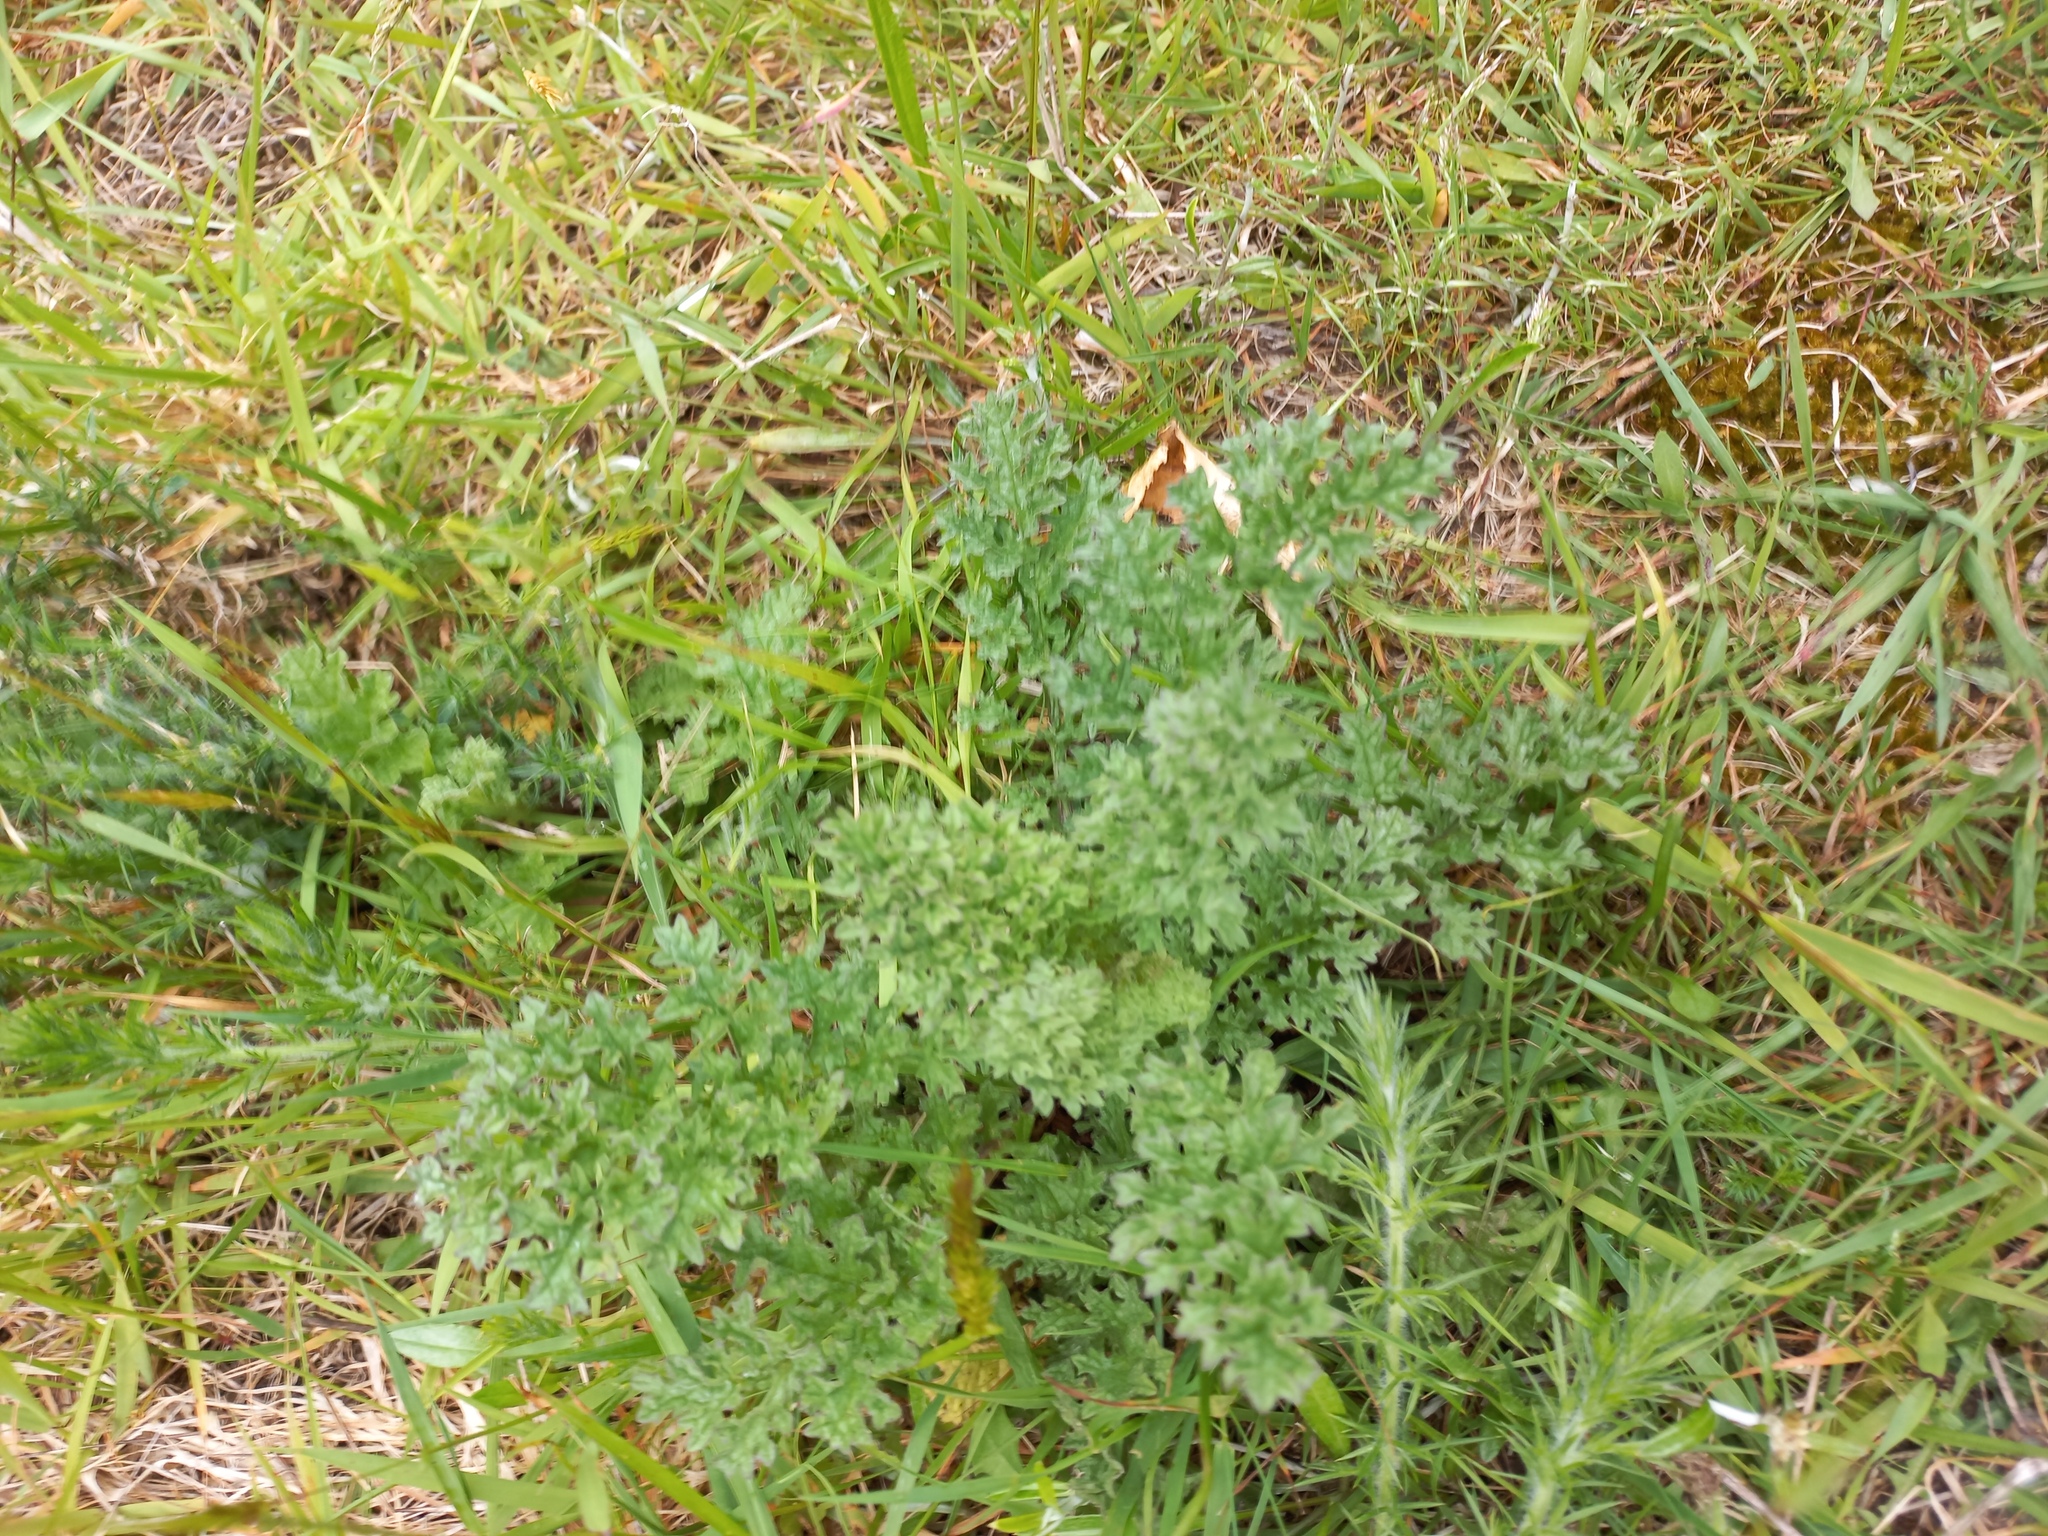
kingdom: Plantae
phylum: Tracheophyta
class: Magnoliopsida
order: Asterales
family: Asteraceae
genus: Jacobaea
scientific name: Jacobaea vulgaris
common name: Stinking willie
